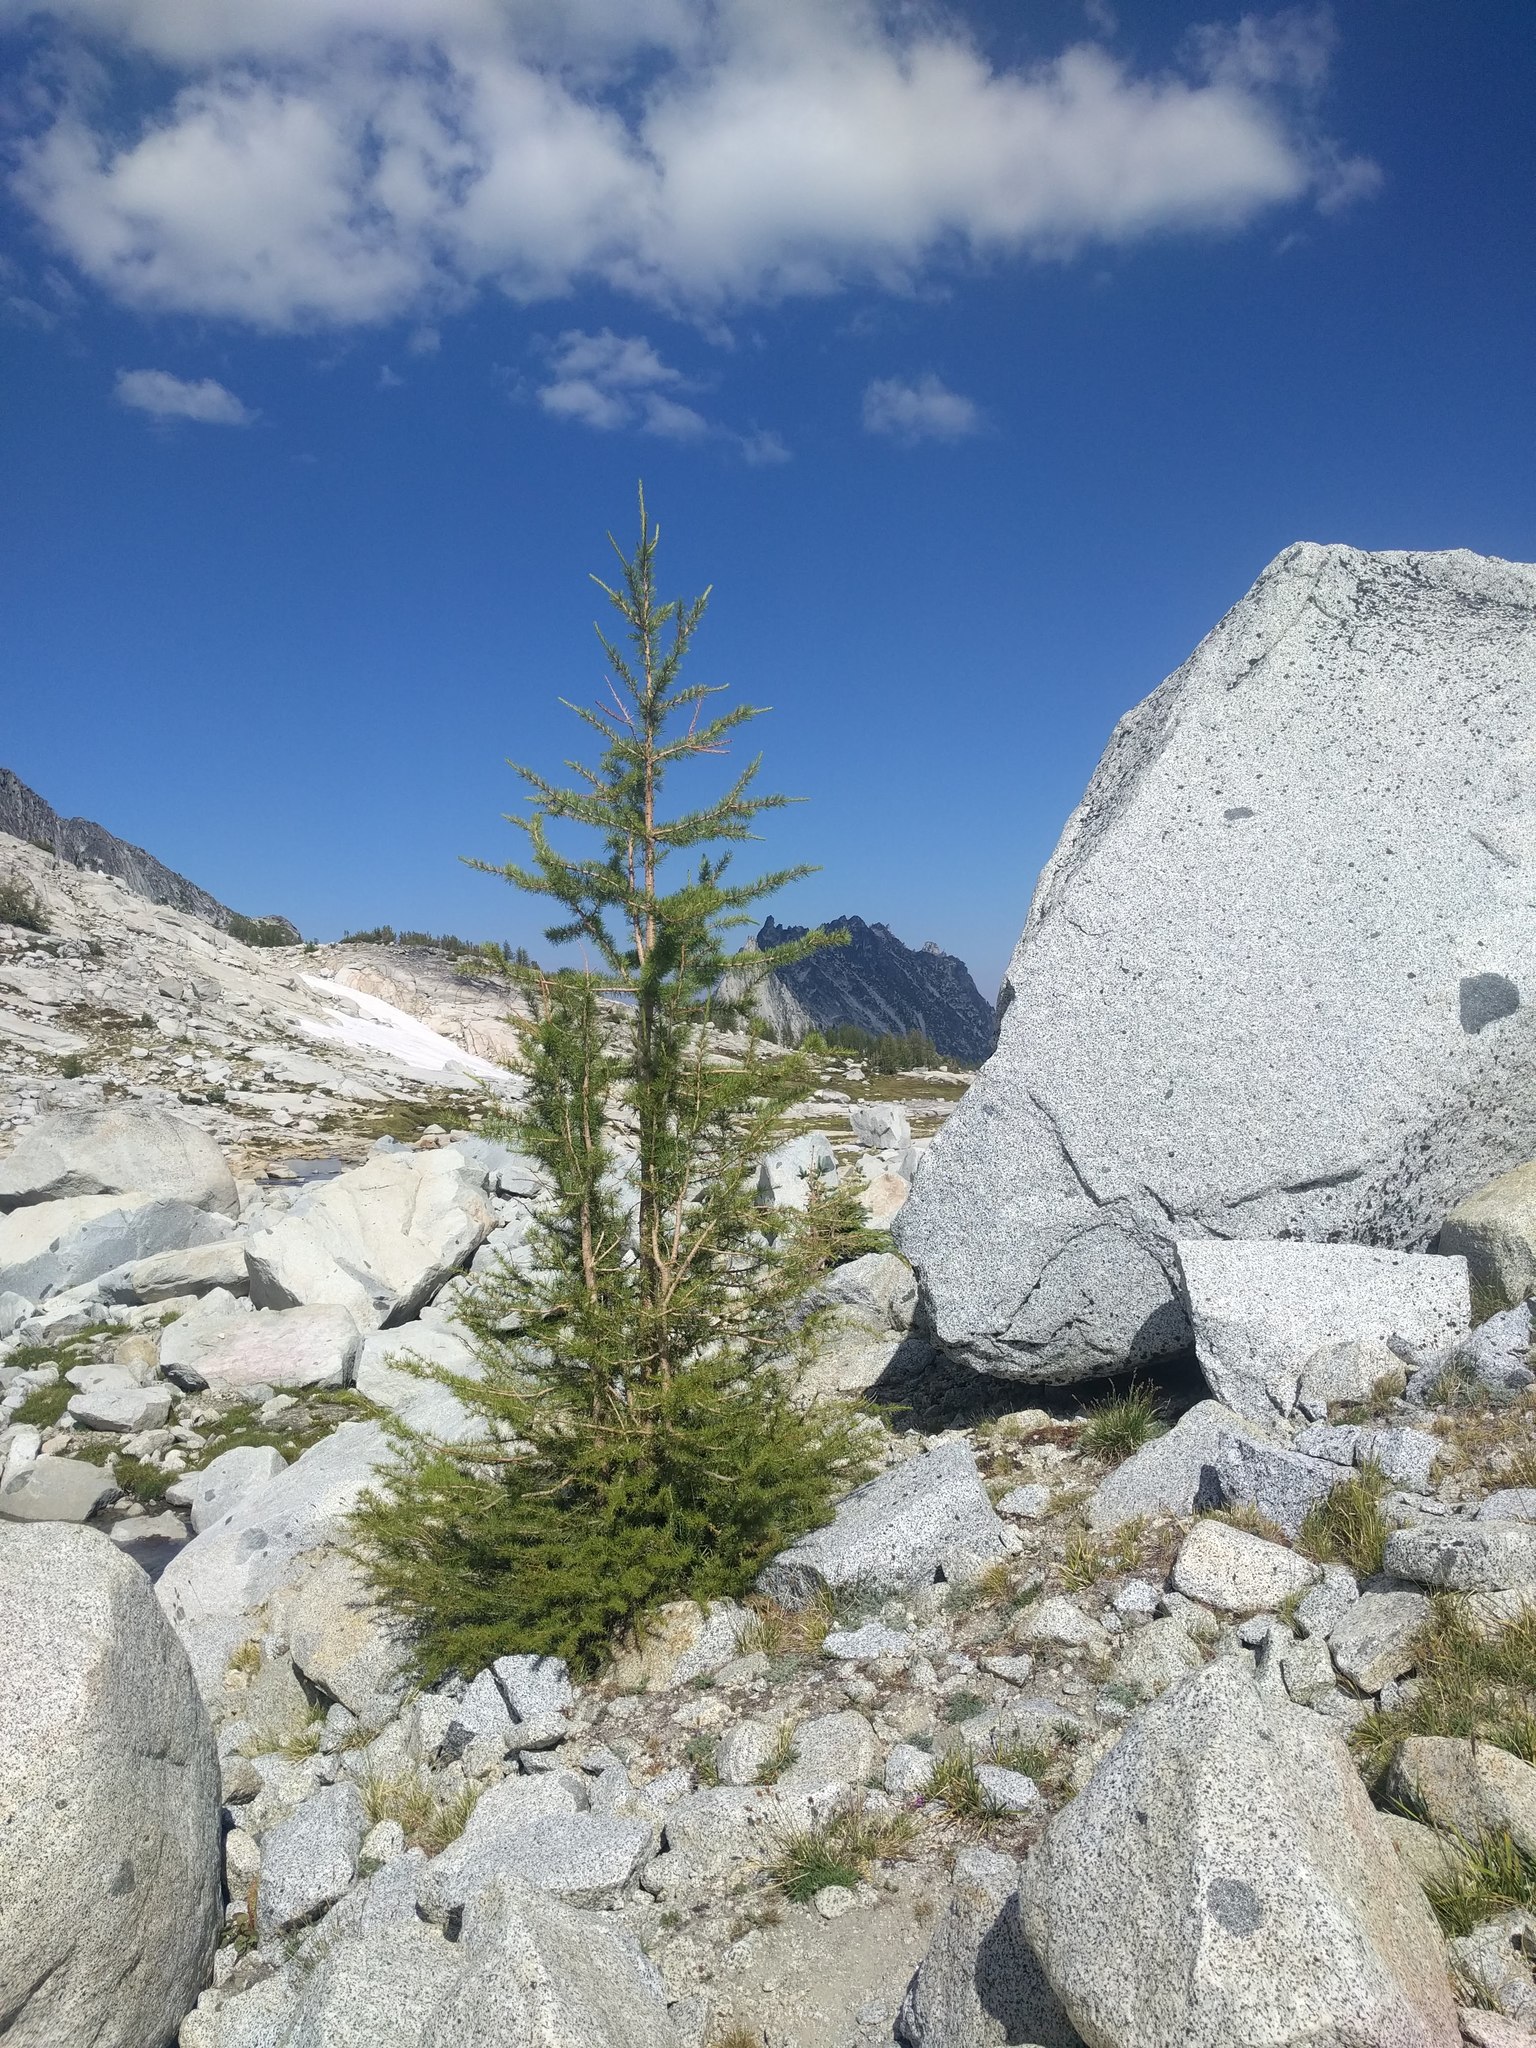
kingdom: Plantae
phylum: Tracheophyta
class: Pinopsida
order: Pinales
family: Pinaceae
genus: Larix
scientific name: Larix lyallii
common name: Alpine larch
